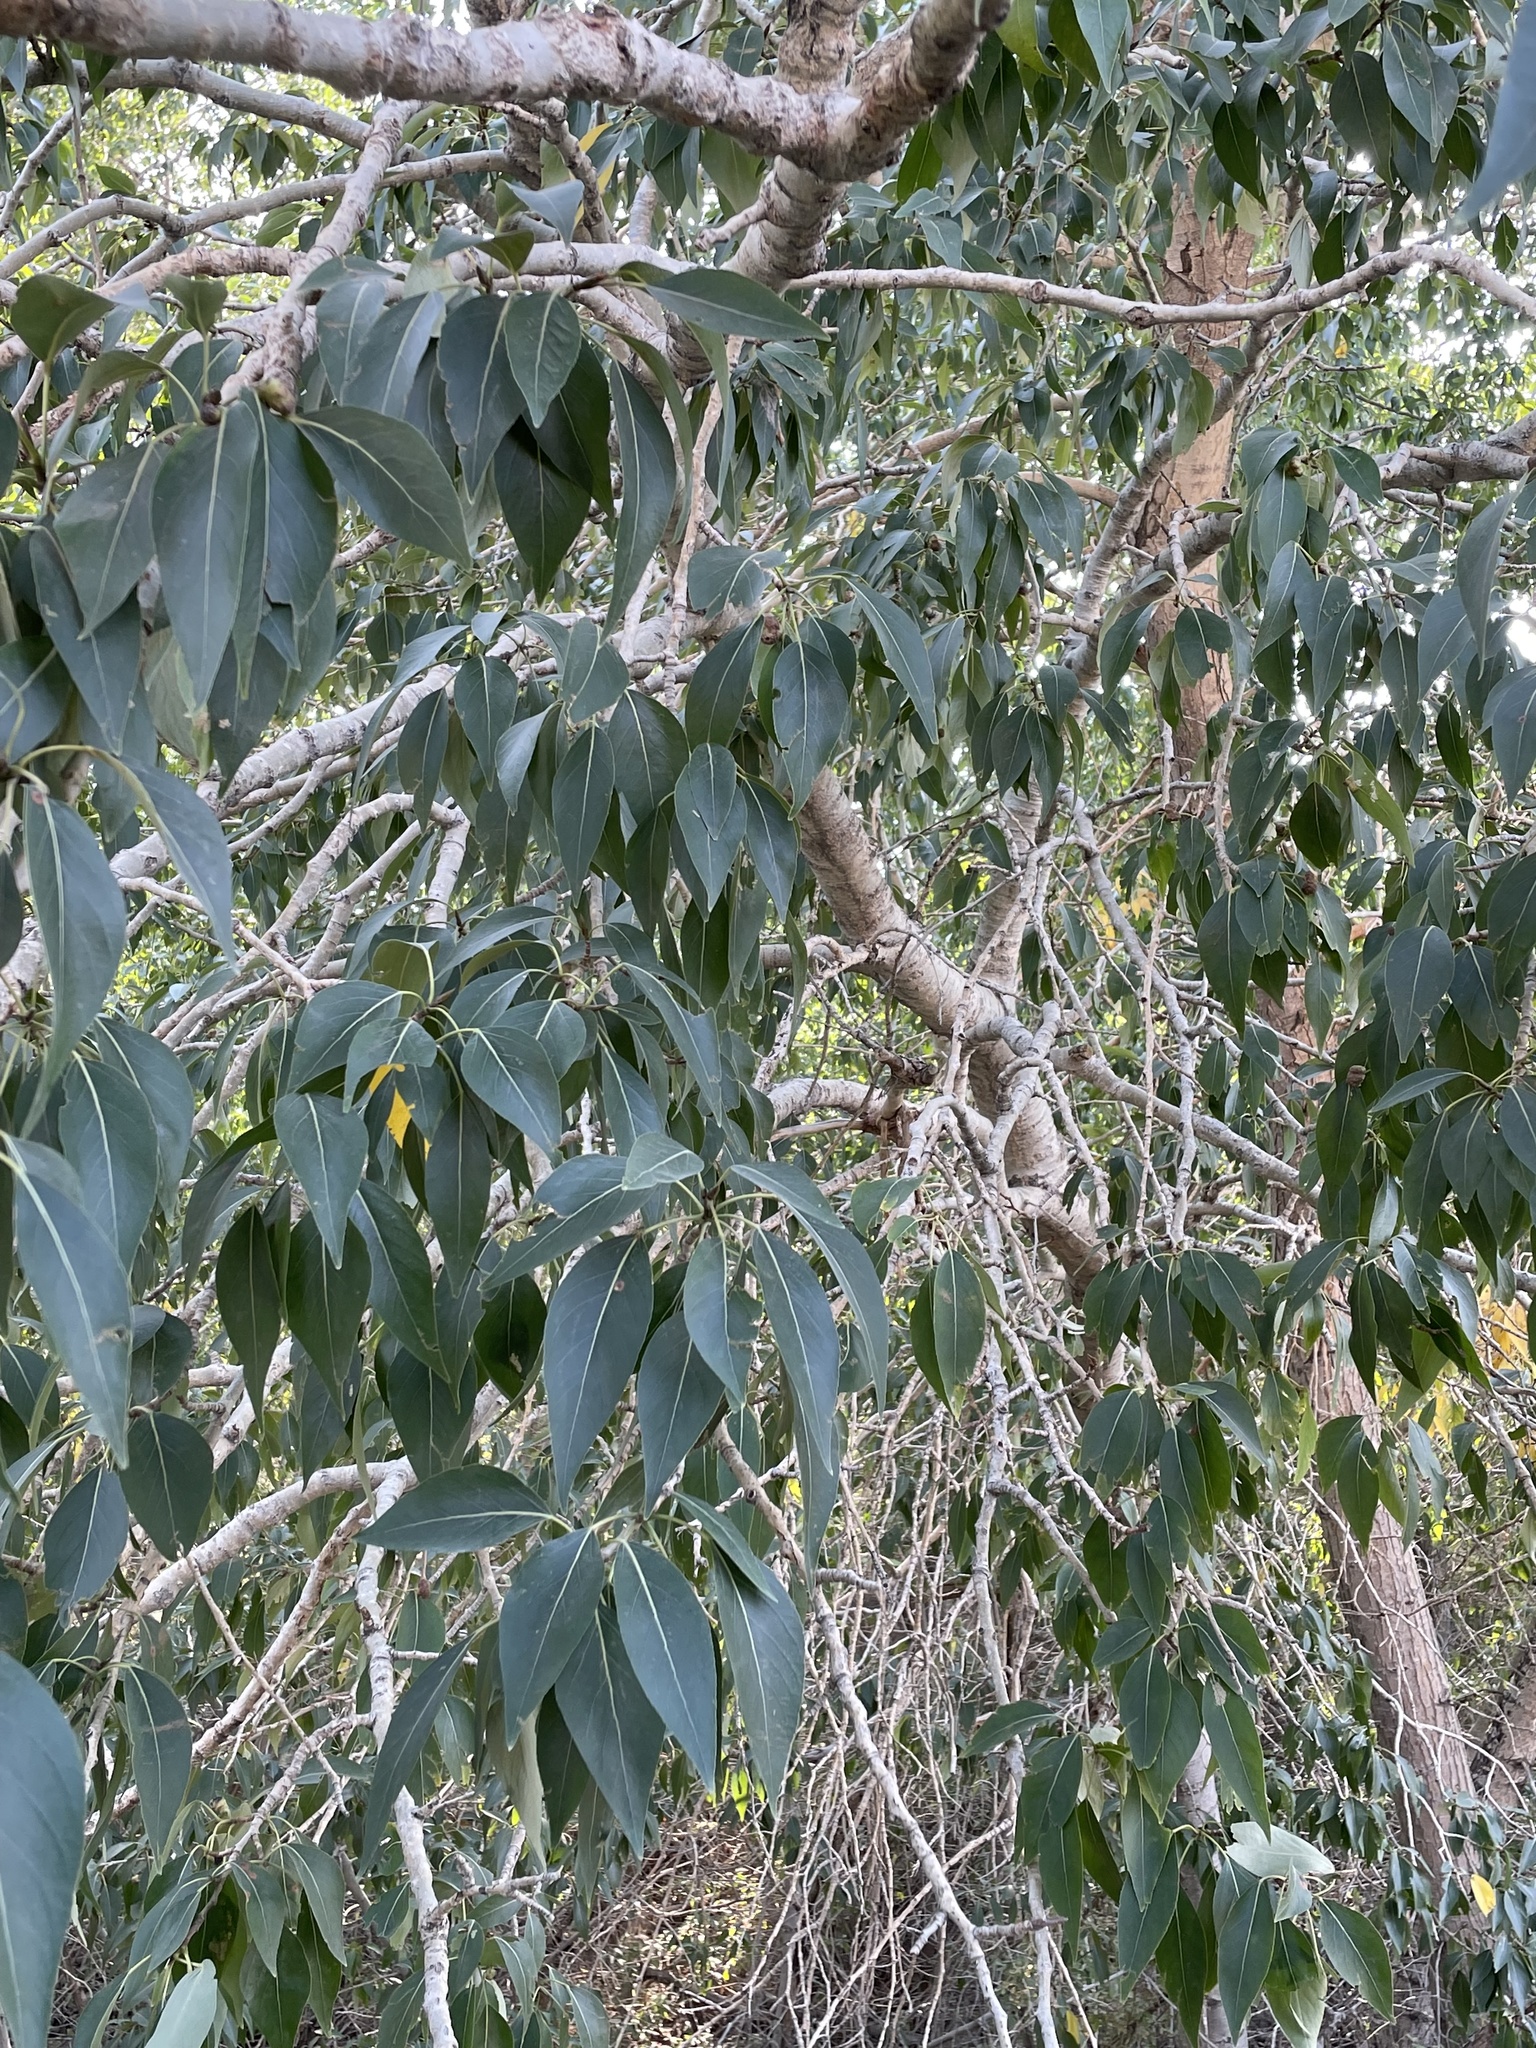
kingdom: Plantae
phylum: Tracheophyta
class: Magnoliopsida
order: Malpighiales
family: Salicaceae
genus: Populus
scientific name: Populus trichocarpa
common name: Black cottonwood
